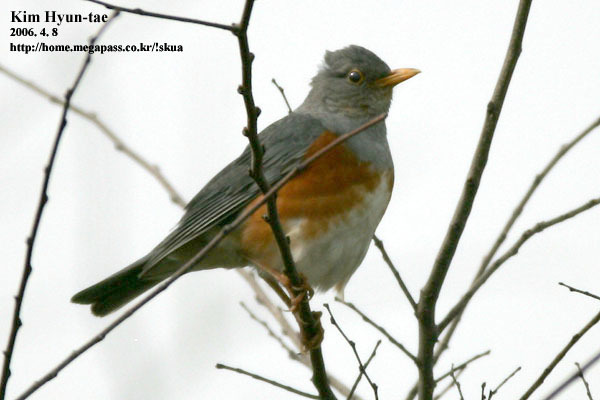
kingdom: Animalia
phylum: Chordata
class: Aves
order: Passeriformes
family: Turdidae
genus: Turdus
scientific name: Turdus hortulorum
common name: Grey-backed thrush
